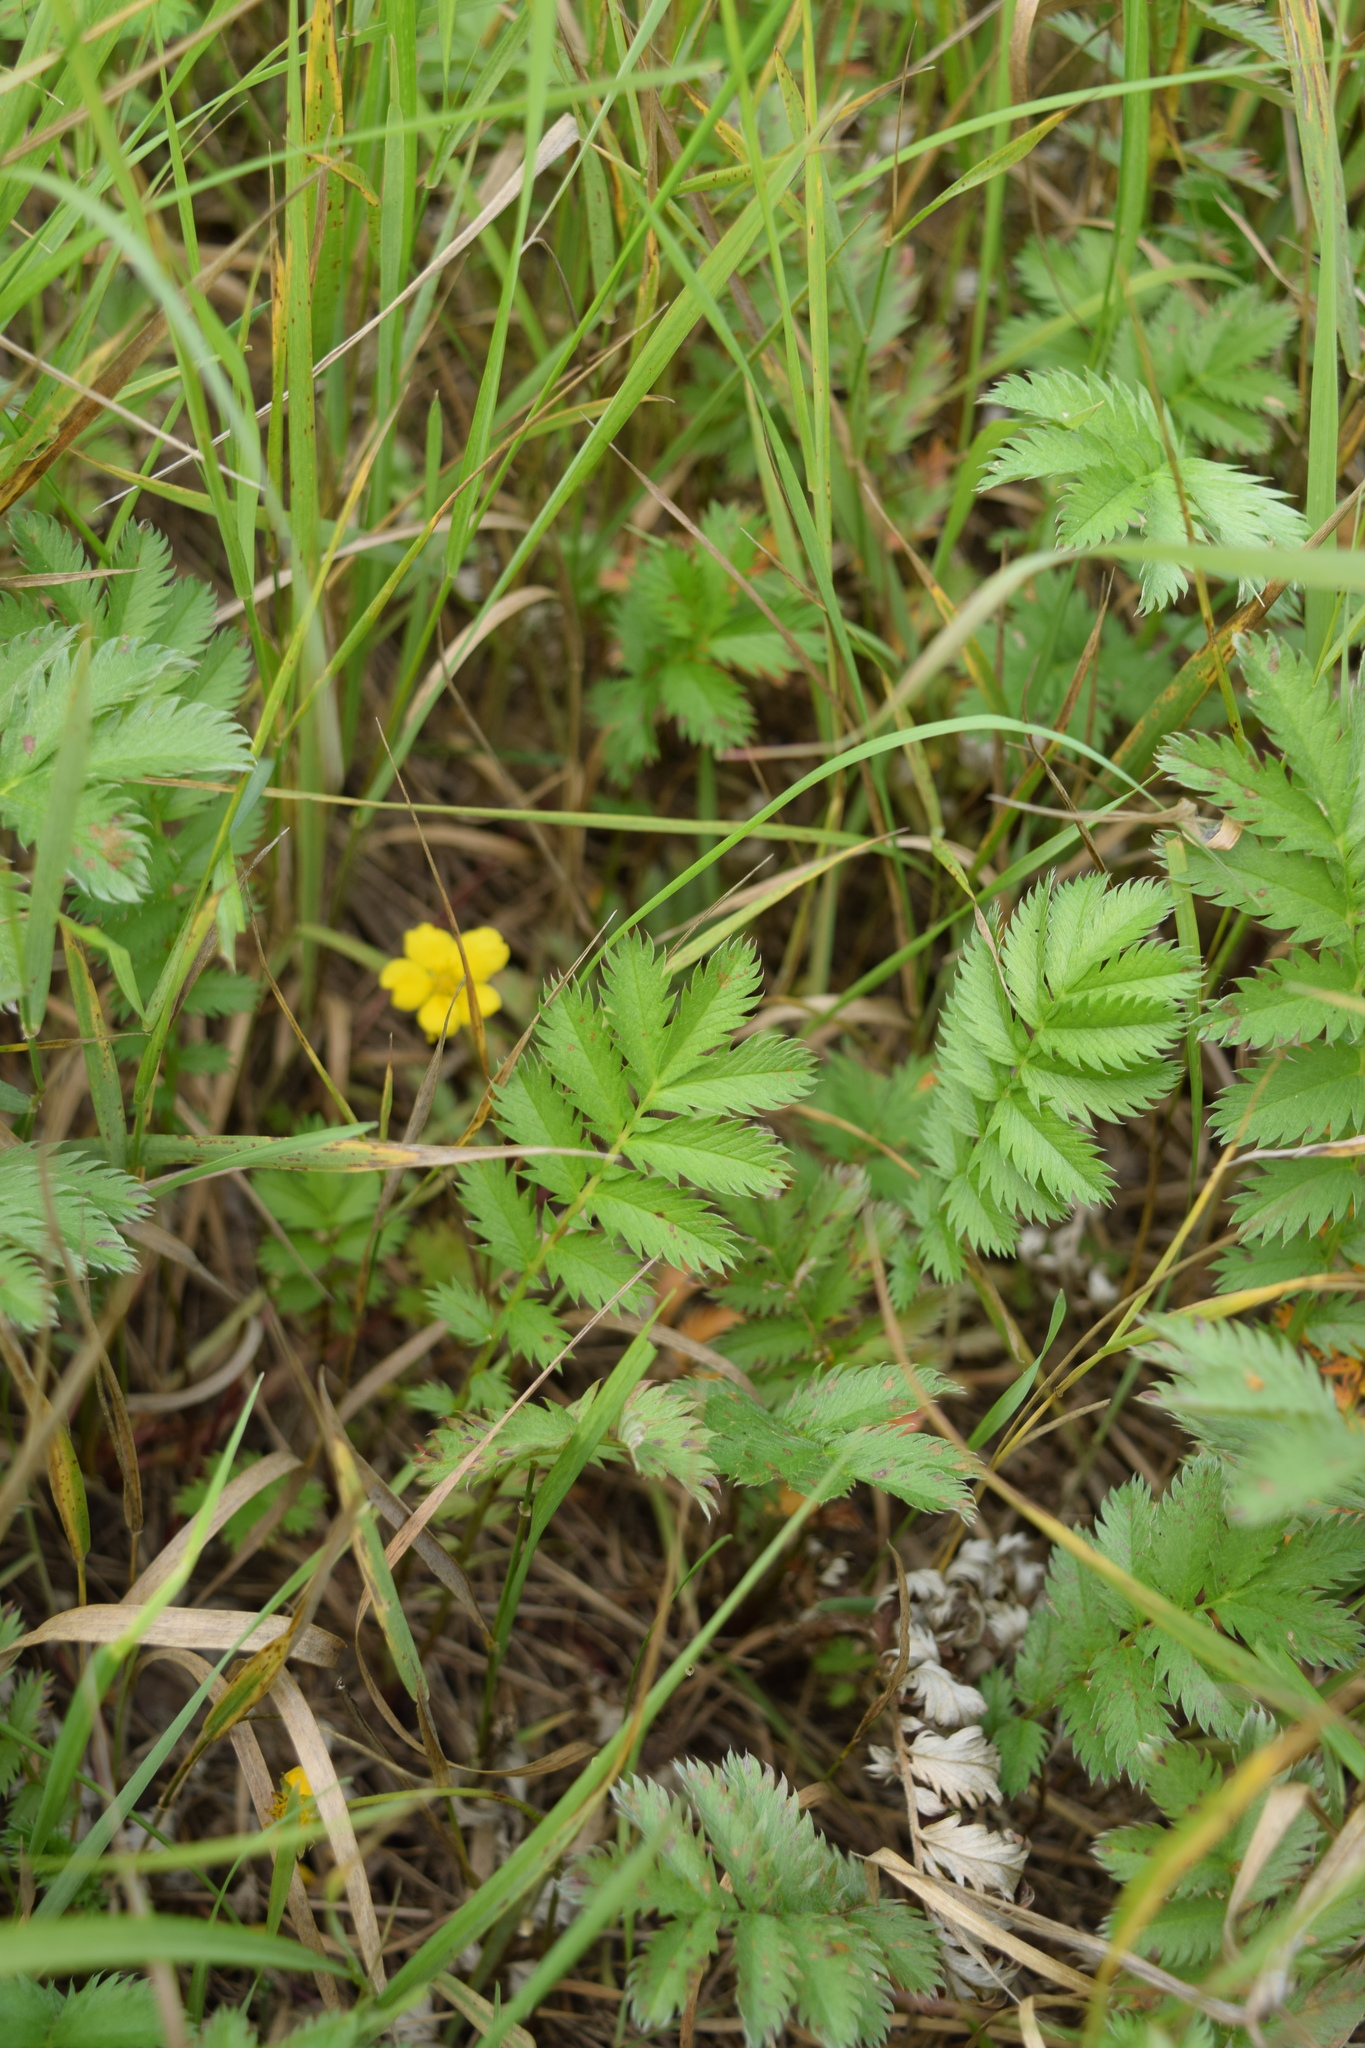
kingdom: Plantae
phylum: Tracheophyta
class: Magnoliopsida
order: Rosales
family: Rosaceae
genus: Argentina
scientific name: Argentina anserina
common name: Common silverweed
